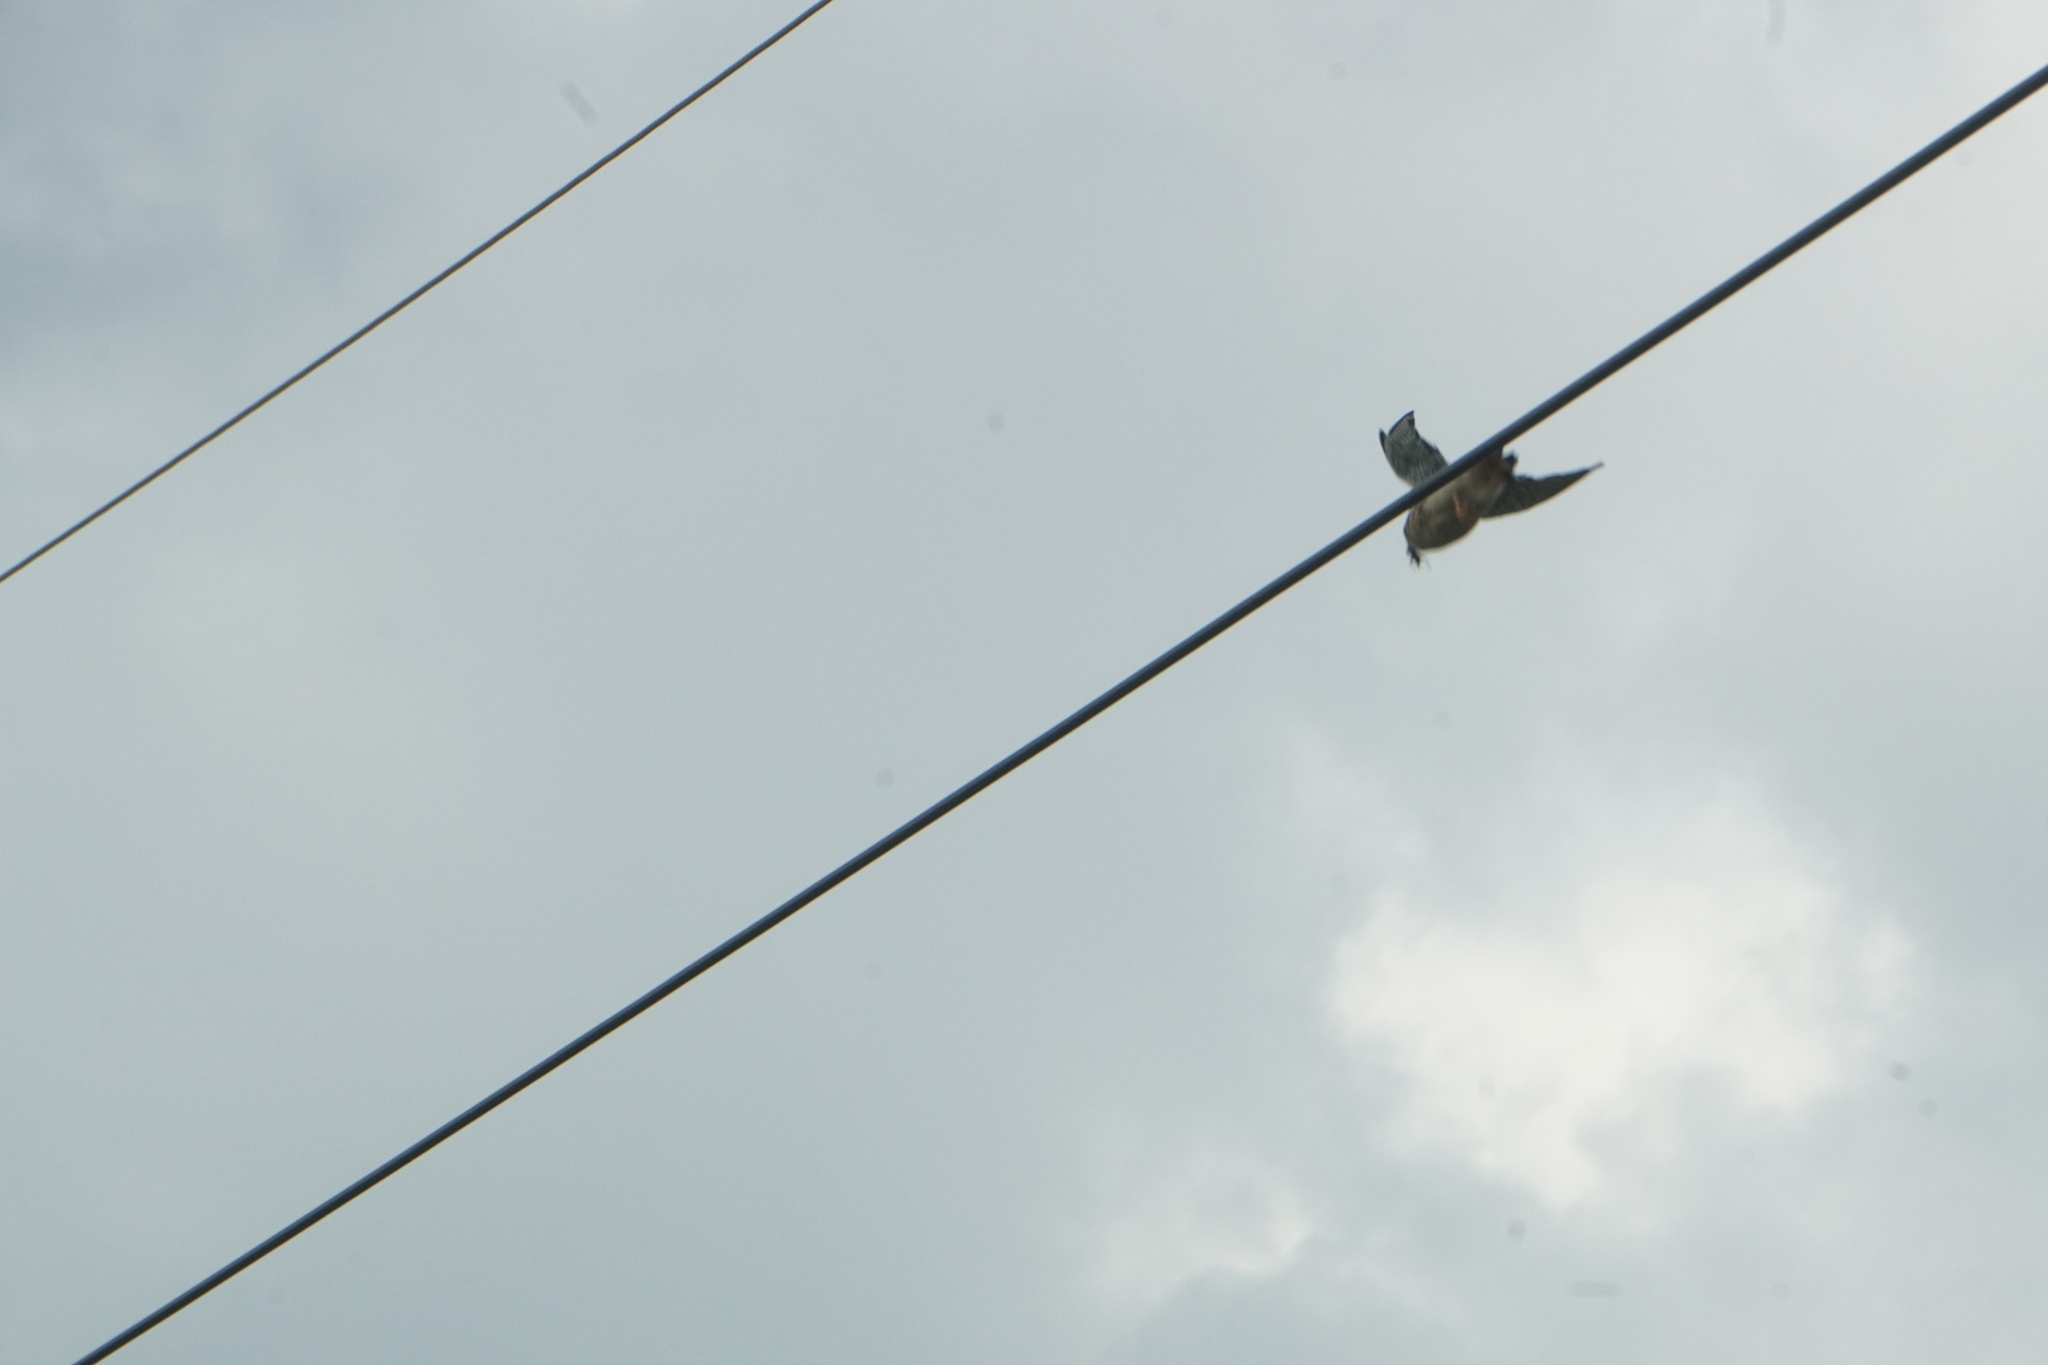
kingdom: Animalia
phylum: Chordata
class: Aves
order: Falconiformes
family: Falconidae
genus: Falco
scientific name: Falco sparverius
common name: American kestrel
